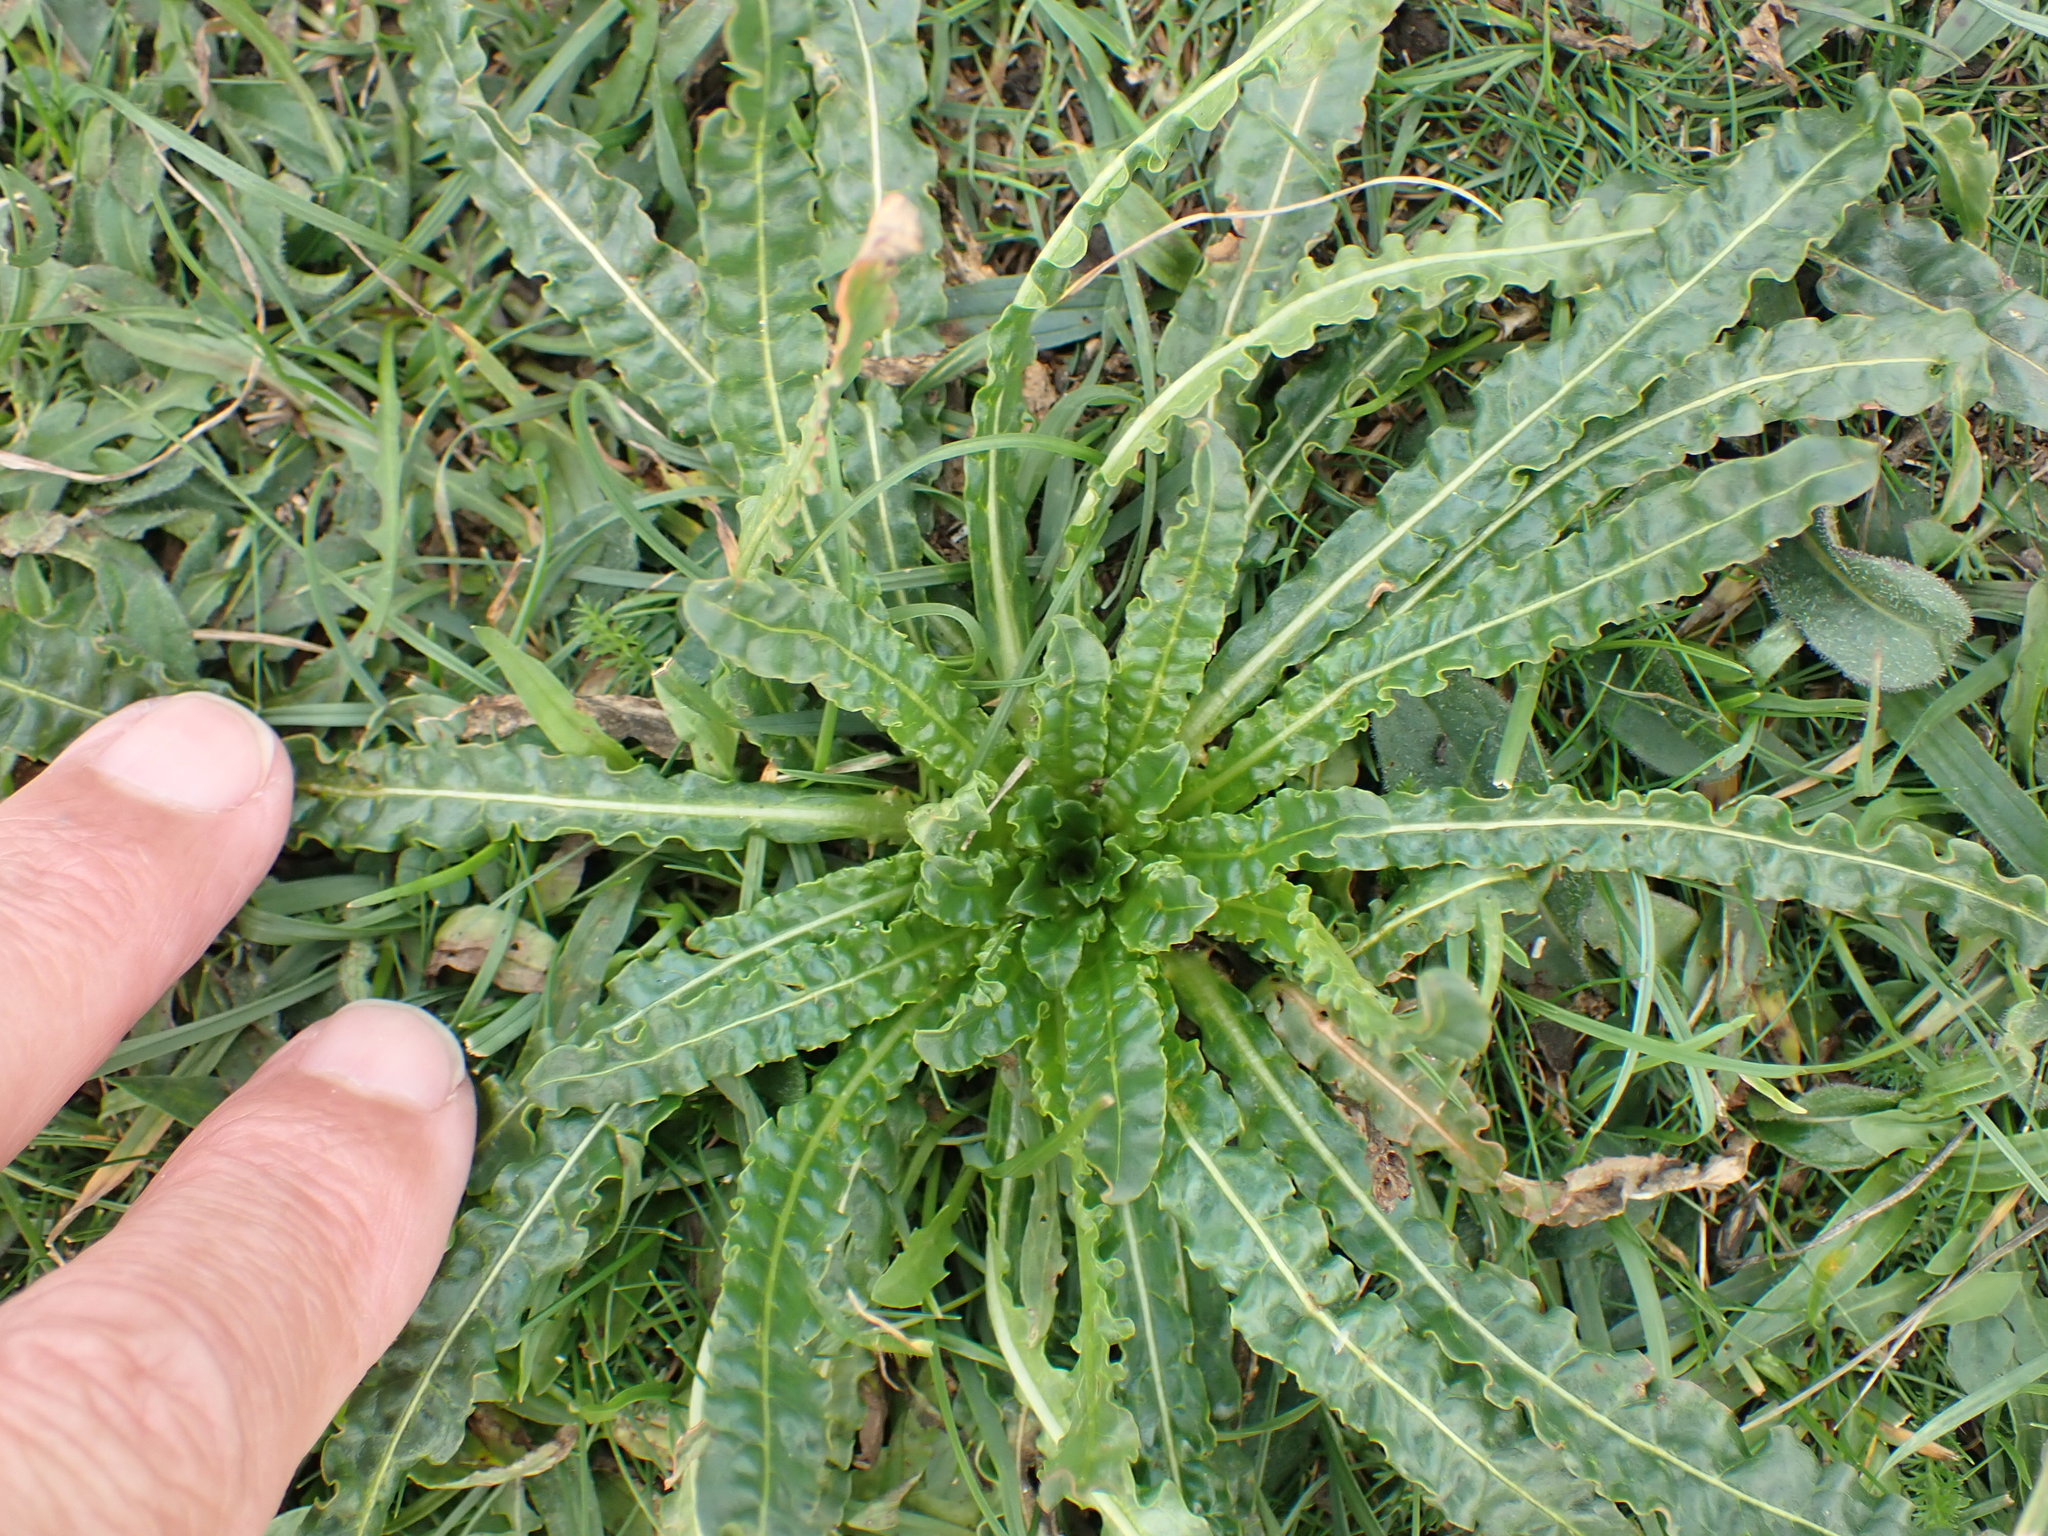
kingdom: Plantae
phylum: Tracheophyta
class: Magnoliopsida
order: Brassicales
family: Resedaceae
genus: Reseda
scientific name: Reseda luteola
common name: Weld
